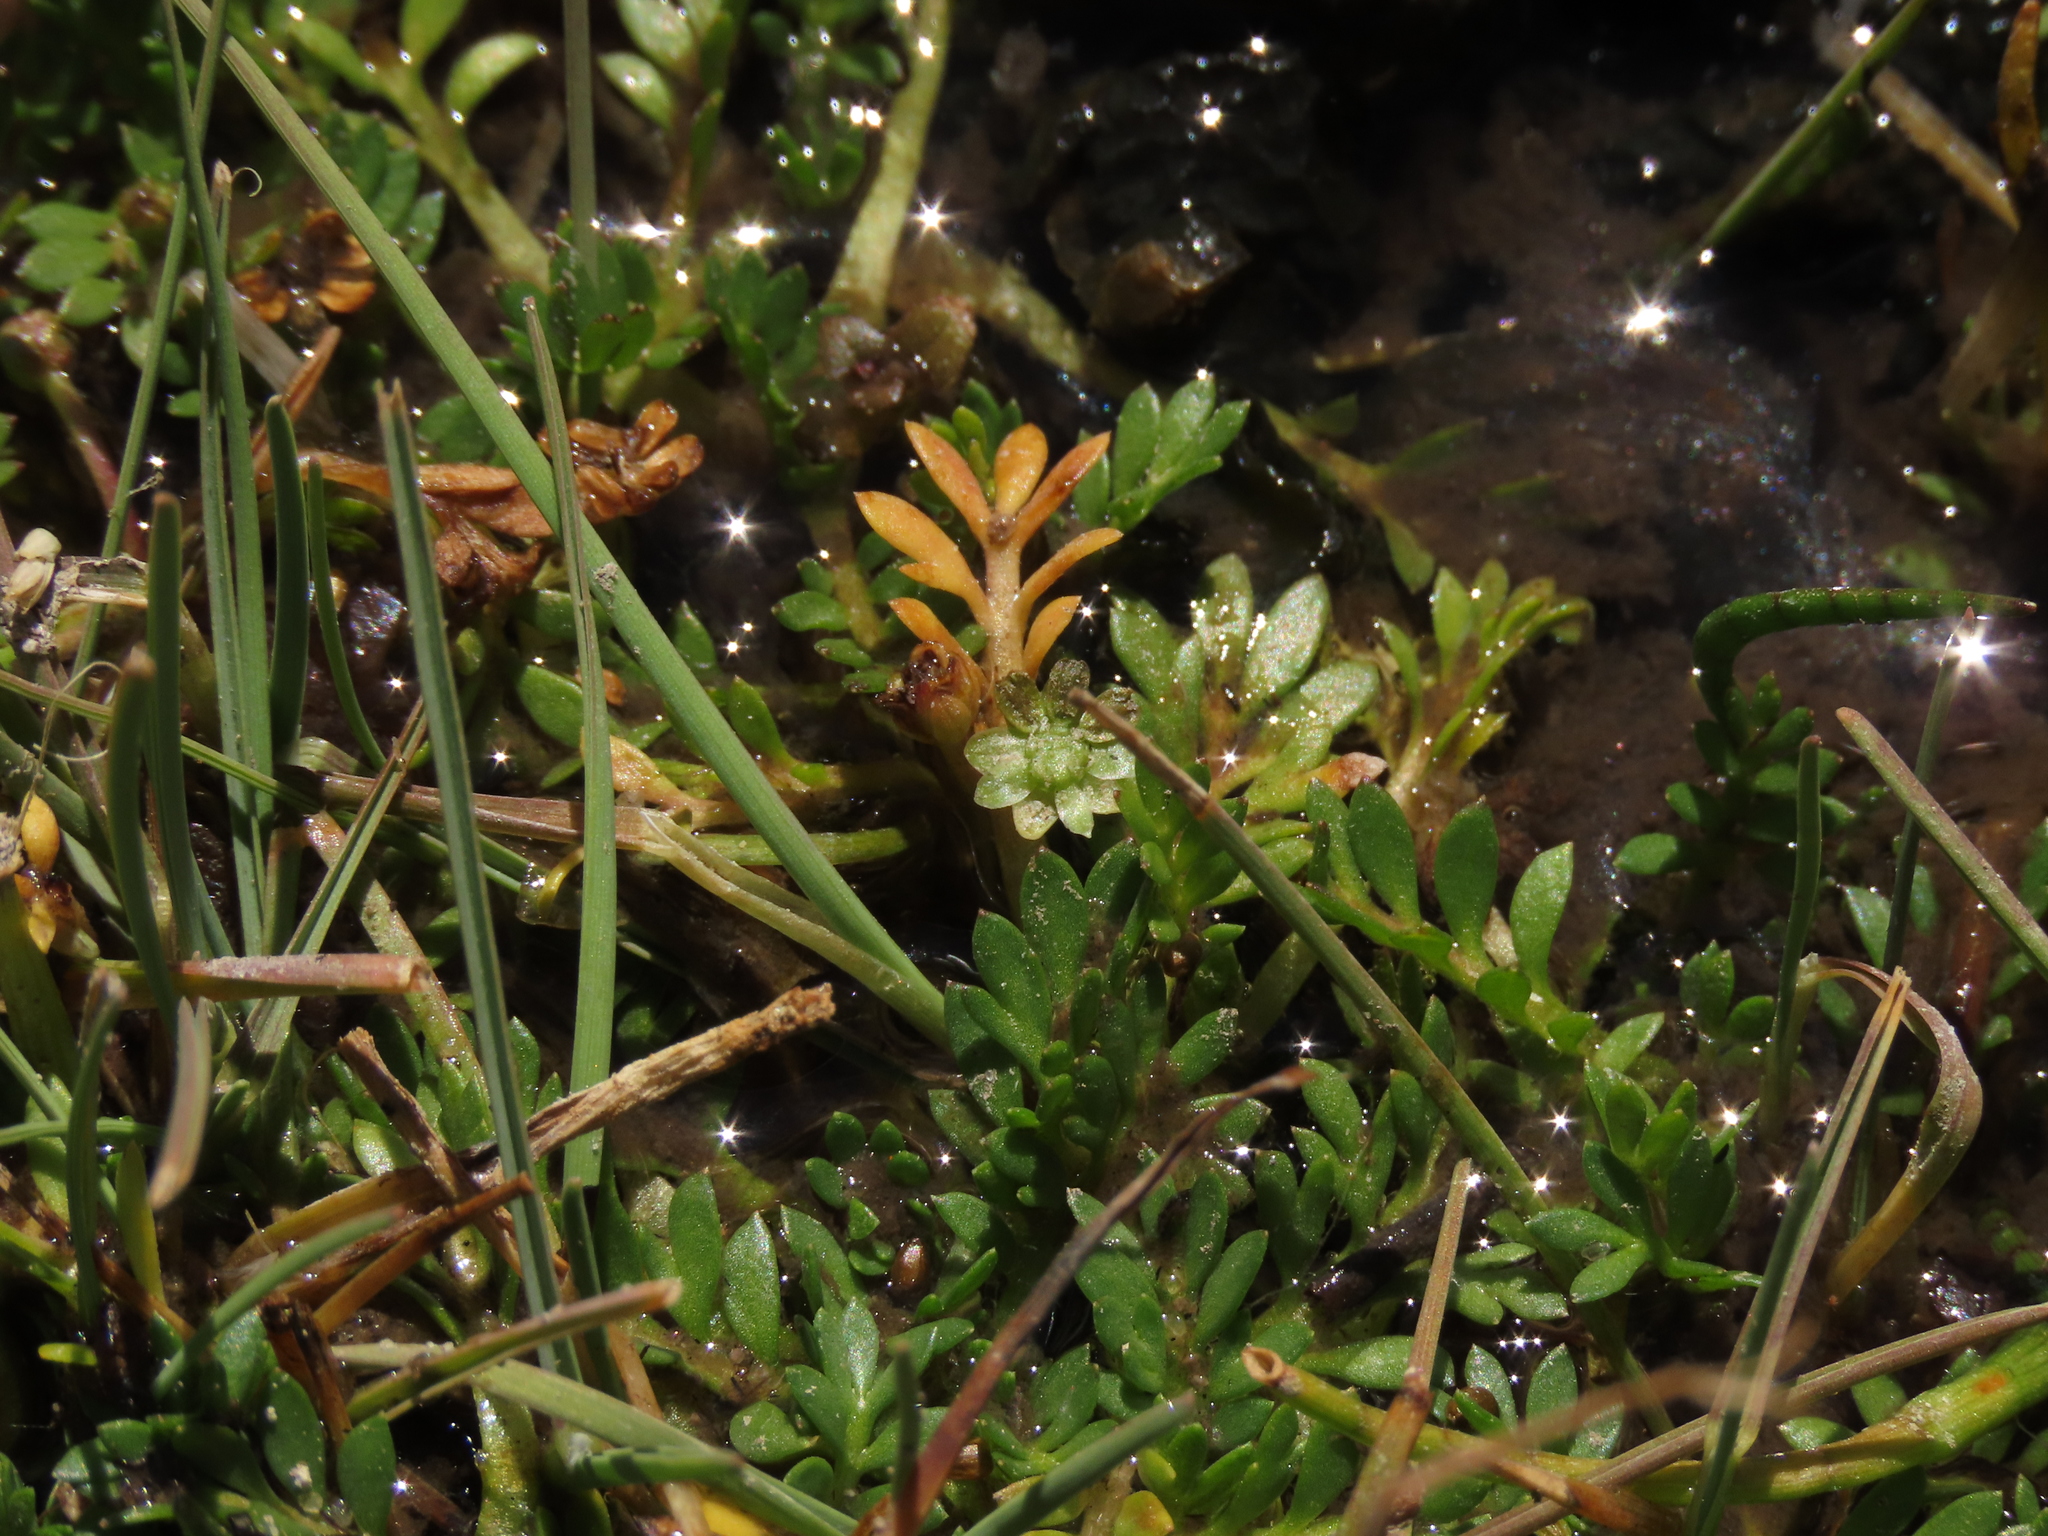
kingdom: Plantae
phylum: Tracheophyta
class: Magnoliopsida
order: Asterales
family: Asteraceae
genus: Soliva
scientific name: Soliva mexicana
